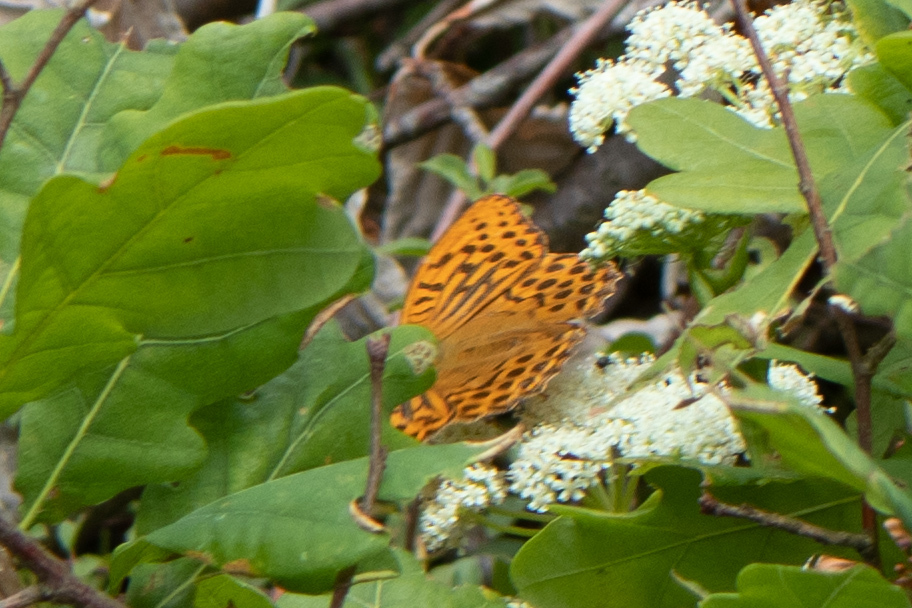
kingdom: Animalia
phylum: Arthropoda
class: Insecta
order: Lepidoptera
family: Nymphalidae
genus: Argynnis
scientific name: Argynnis paphia
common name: Silver-washed fritillary
